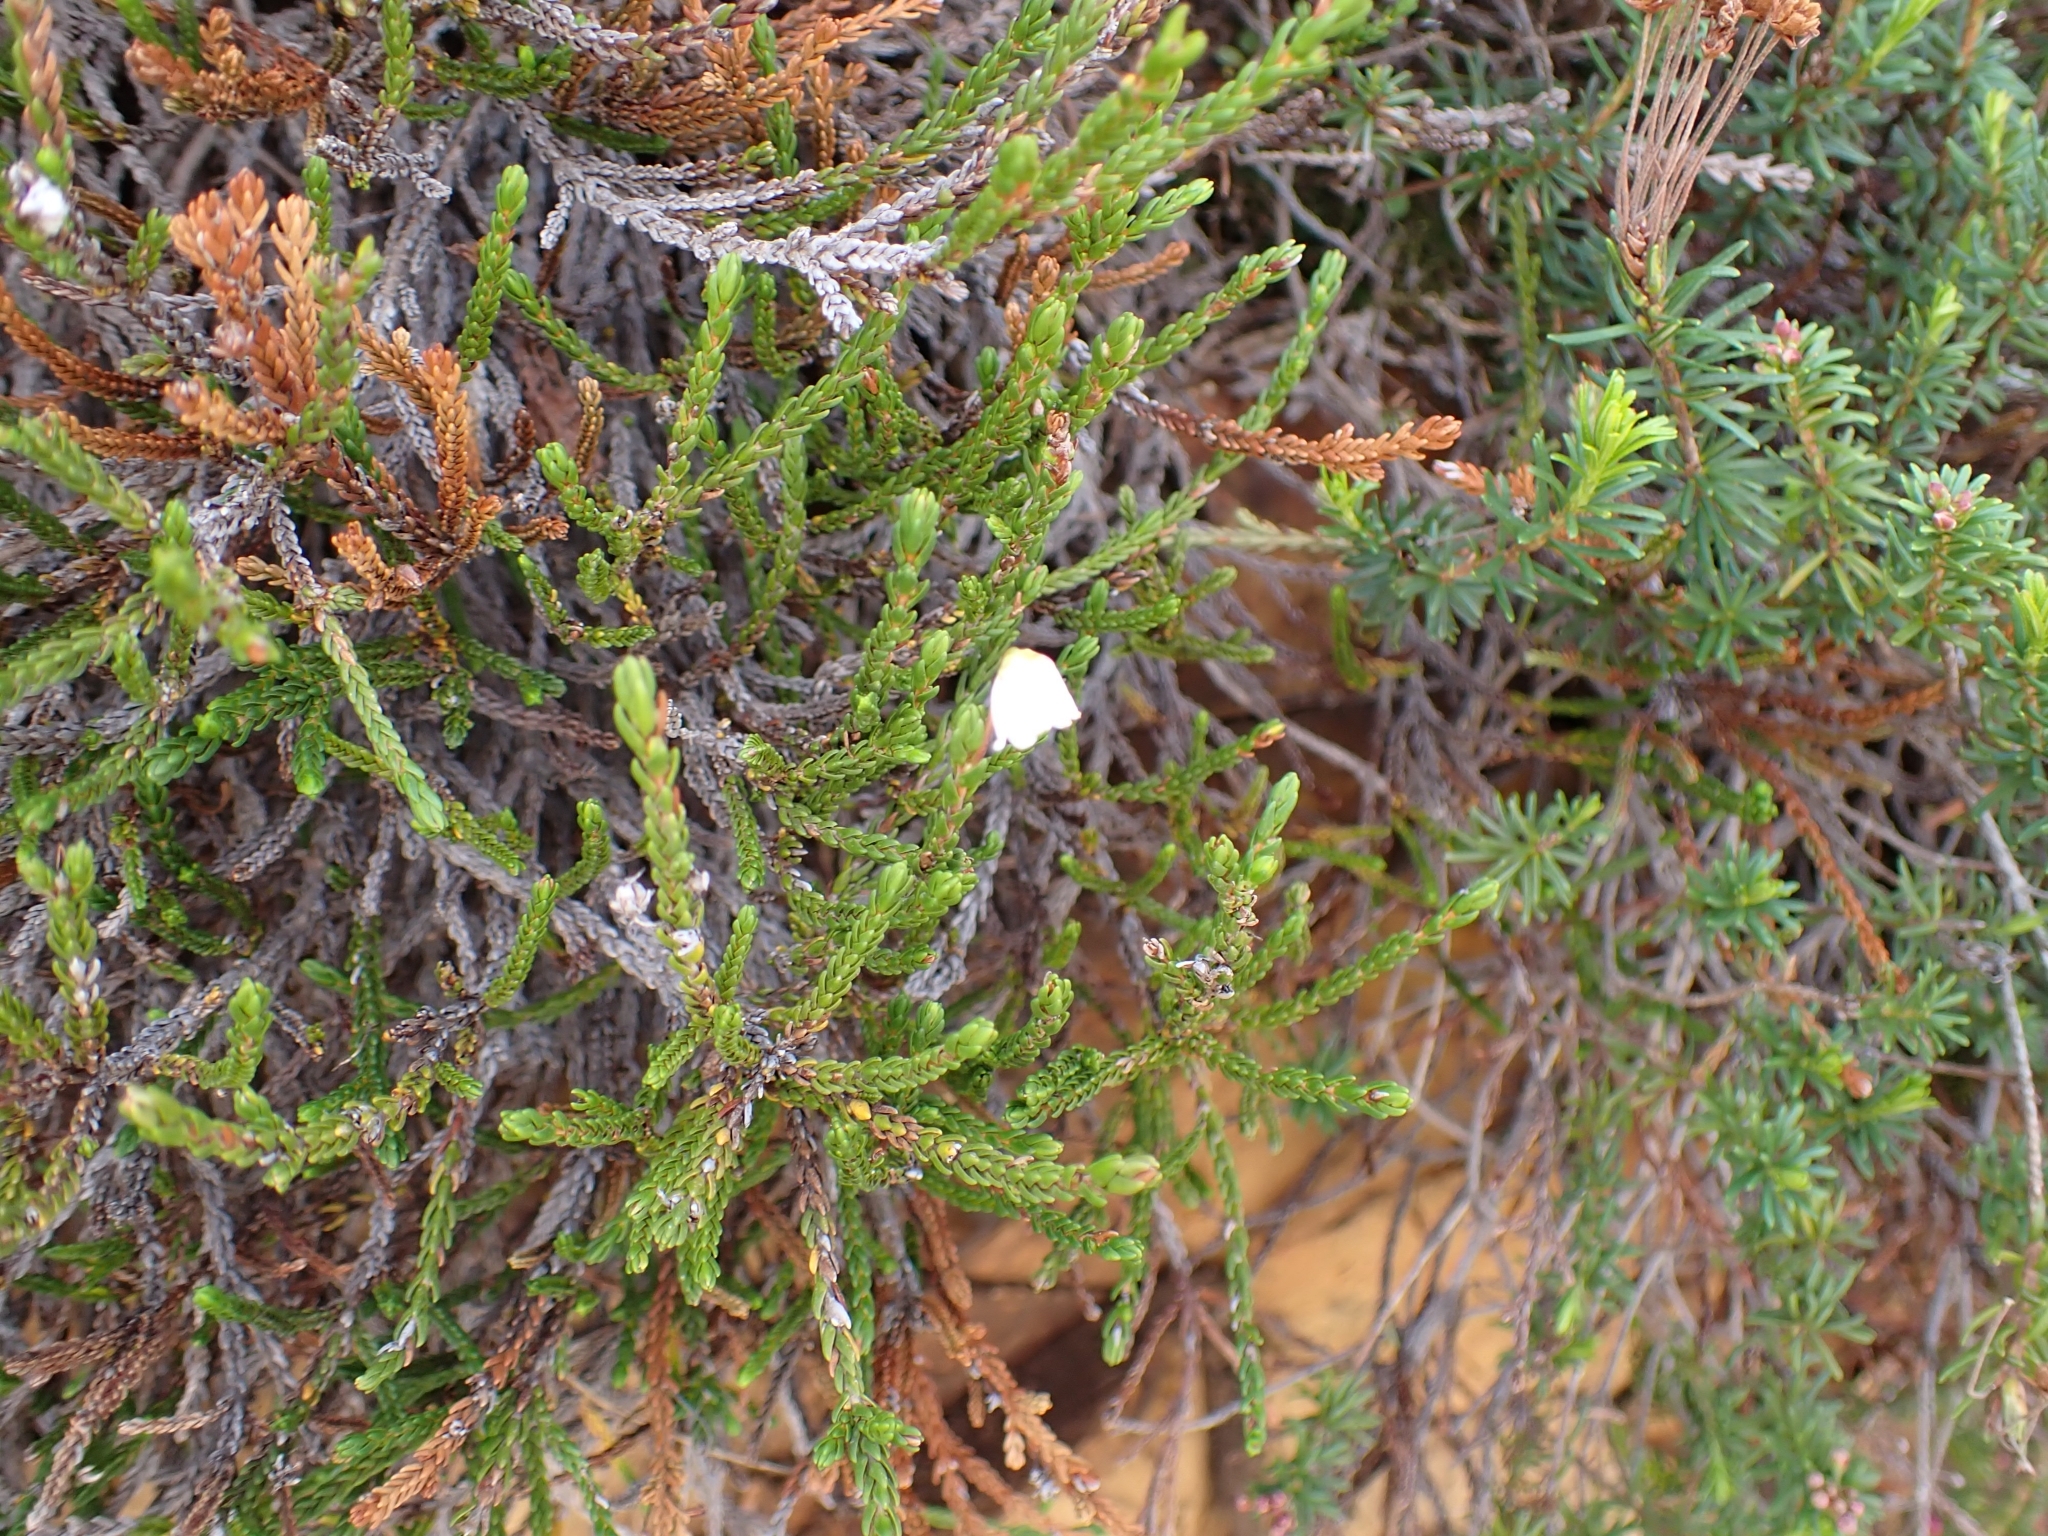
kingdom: Plantae
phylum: Tracheophyta
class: Magnoliopsida
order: Ericales
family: Ericaceae
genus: Cassiope
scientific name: Cassiope mertensiana
